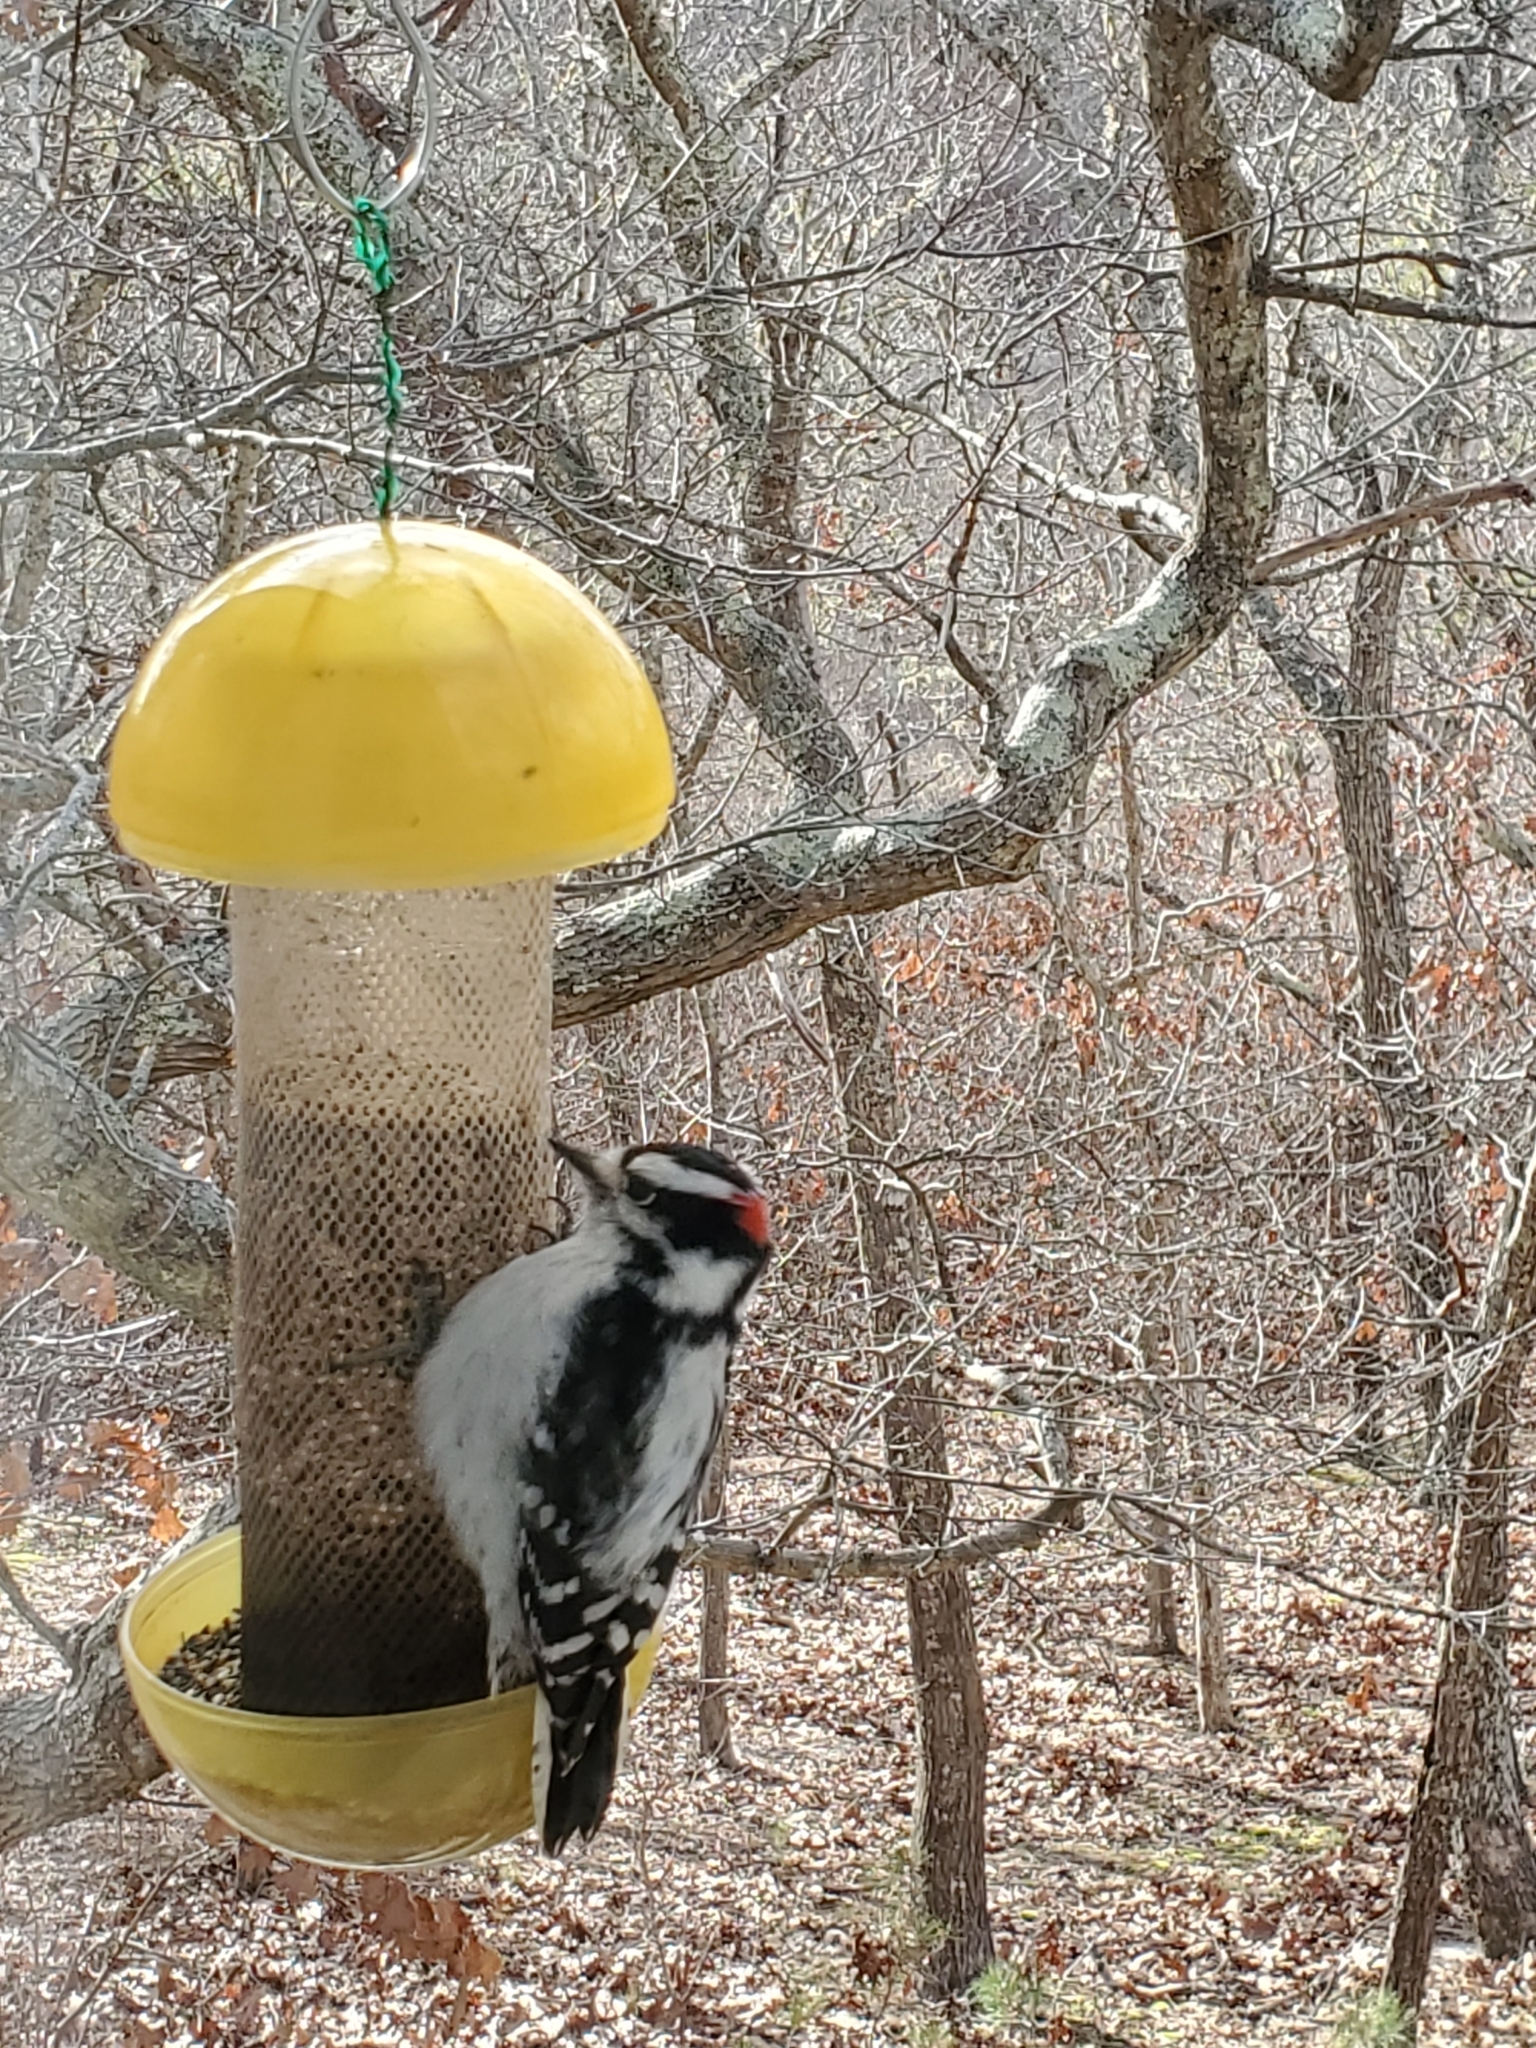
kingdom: Animalia
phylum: Chordata
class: Aves
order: Piciformes
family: Picidae
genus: Dryobates
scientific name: Dryobates pubescens
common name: Downy woodpecker
